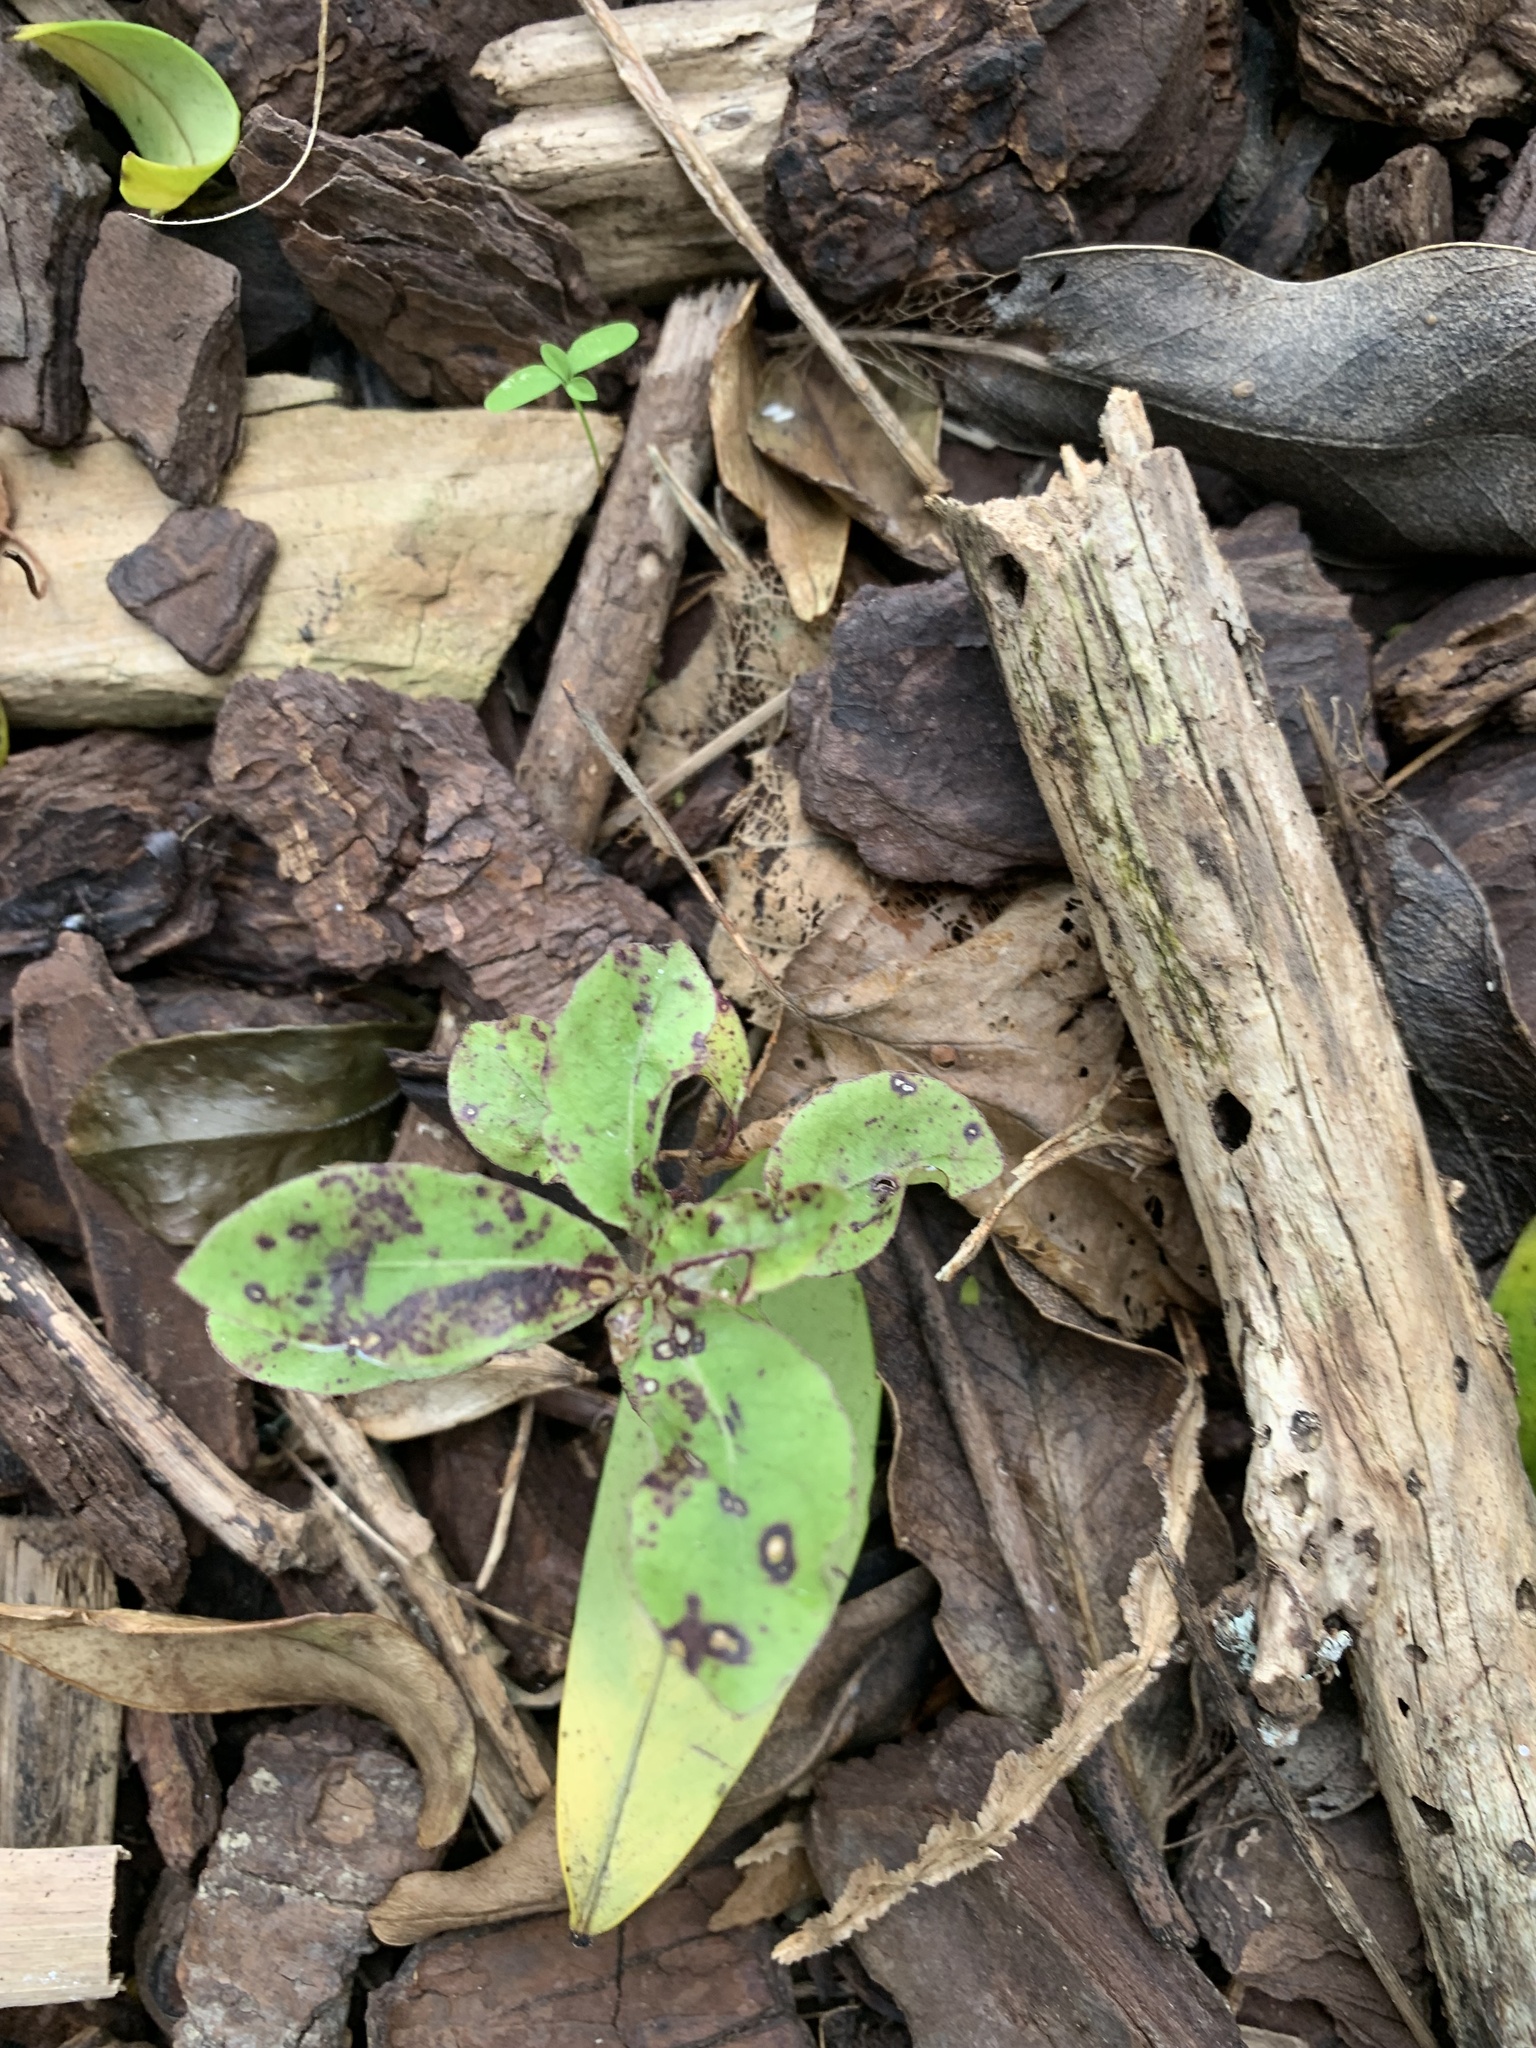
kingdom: Plantae
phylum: Tracheophyta
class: Magnoliopsida
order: Apiales
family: Pittosporaceae
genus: Pittosporum
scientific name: Pittosporum tenuifolium
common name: Kohuhu
